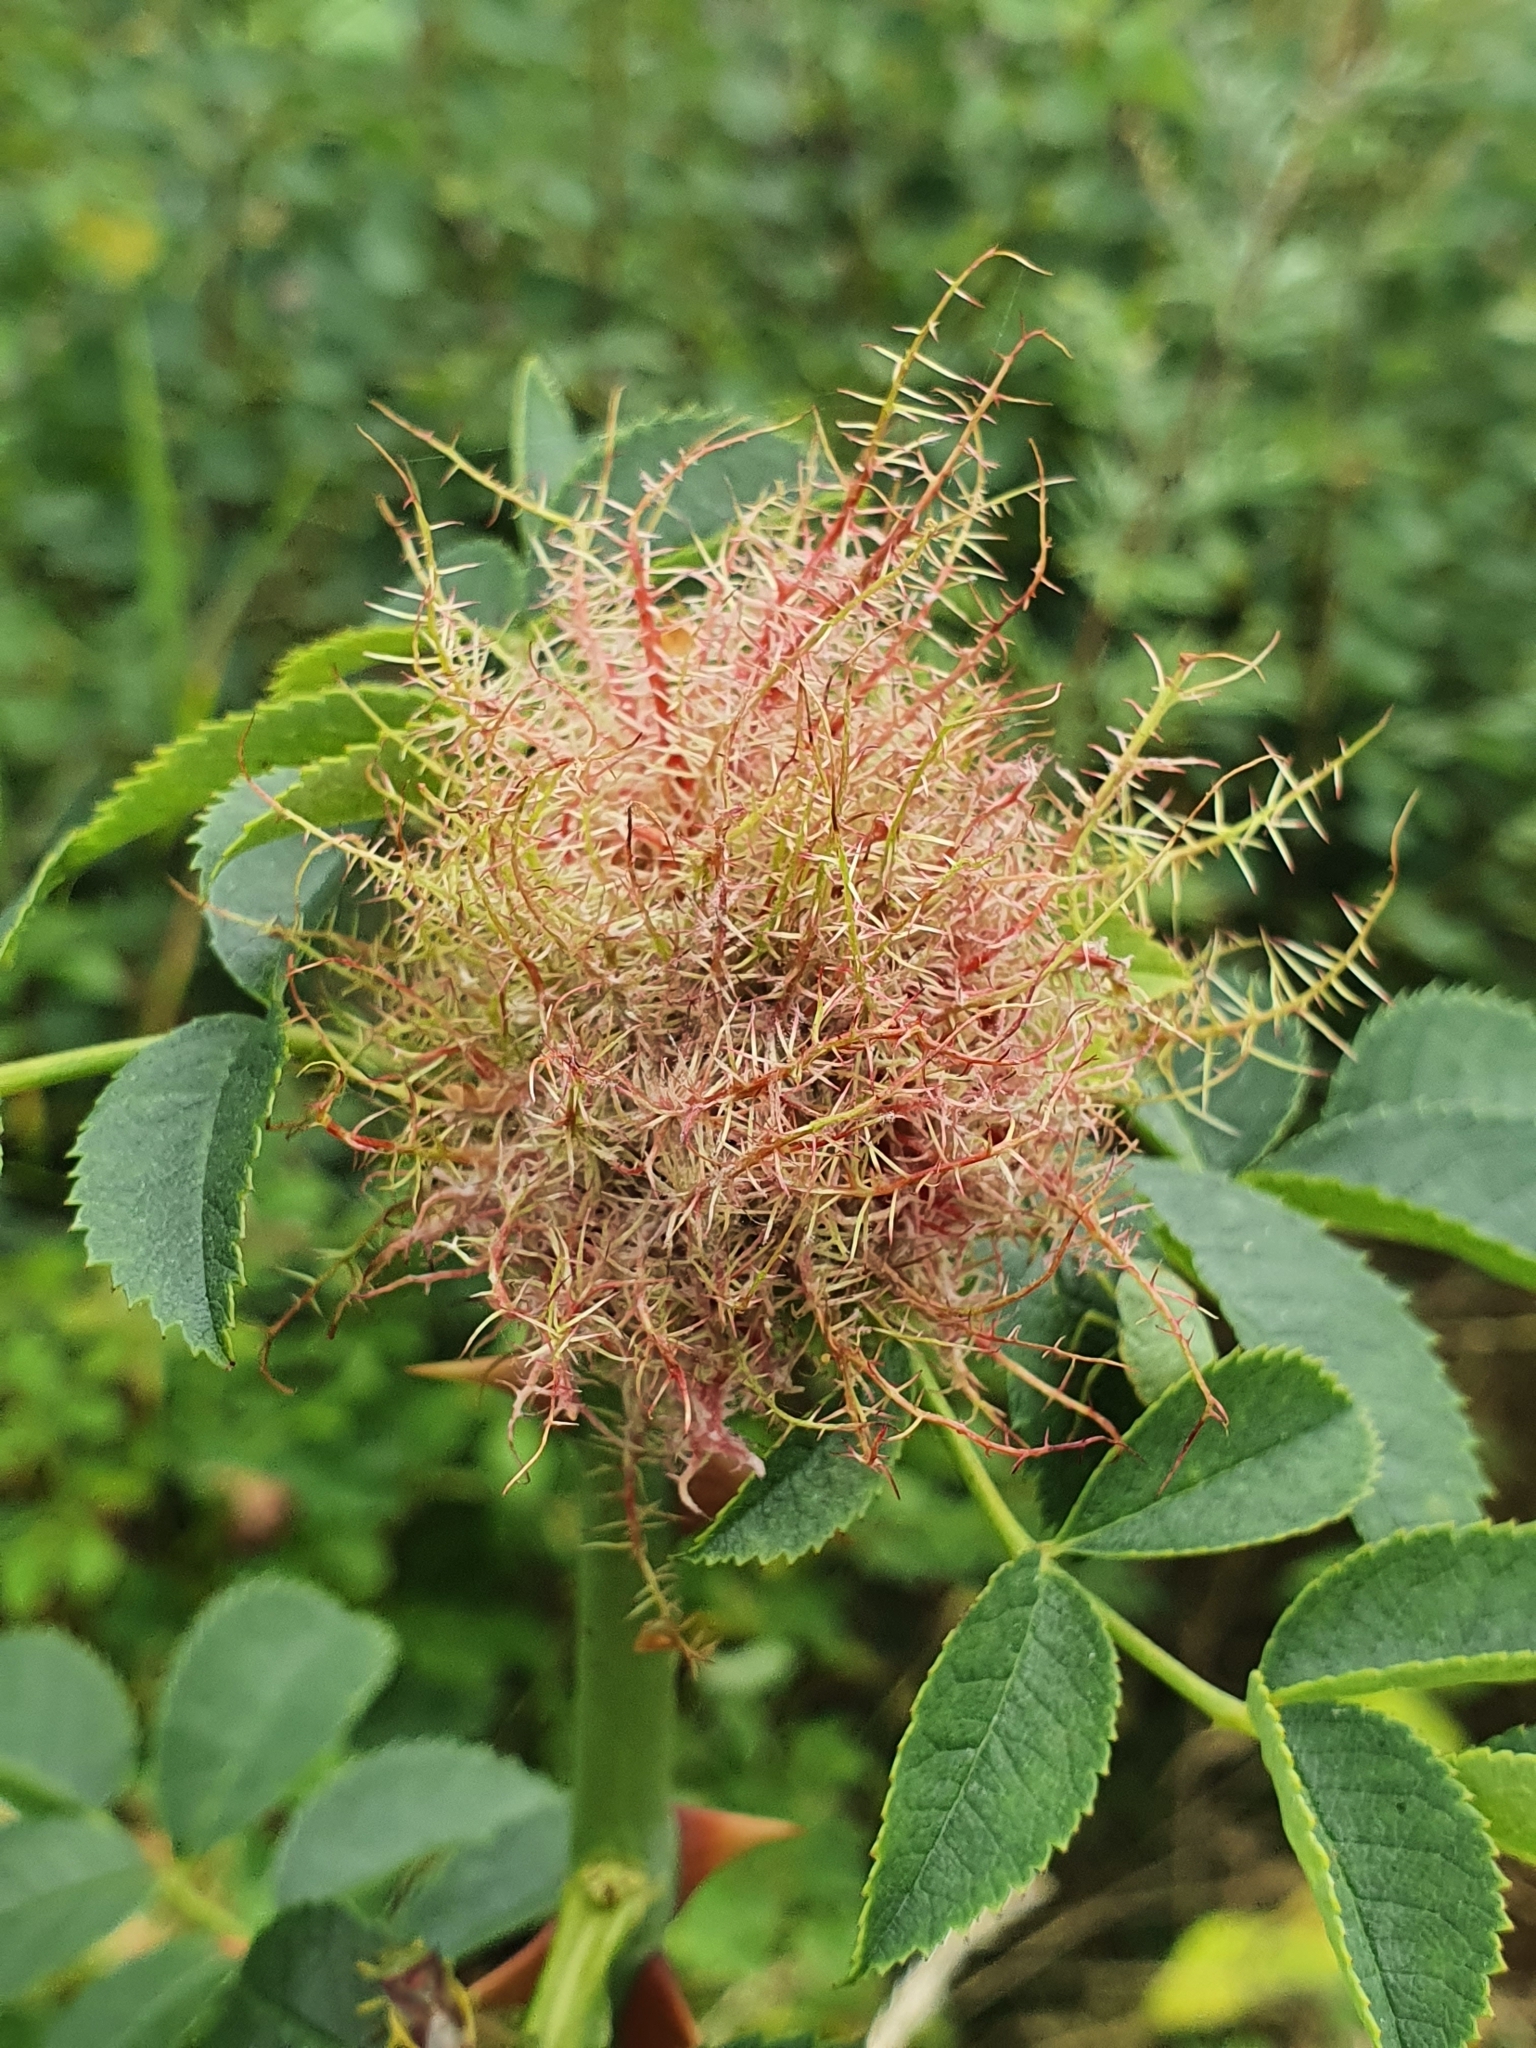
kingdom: Animalia
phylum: Arthropoda
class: Insecta
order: Hymenoptera
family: Cynipidae
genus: Diplolepis
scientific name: Diplolepis rosae
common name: Bedeguar gall
